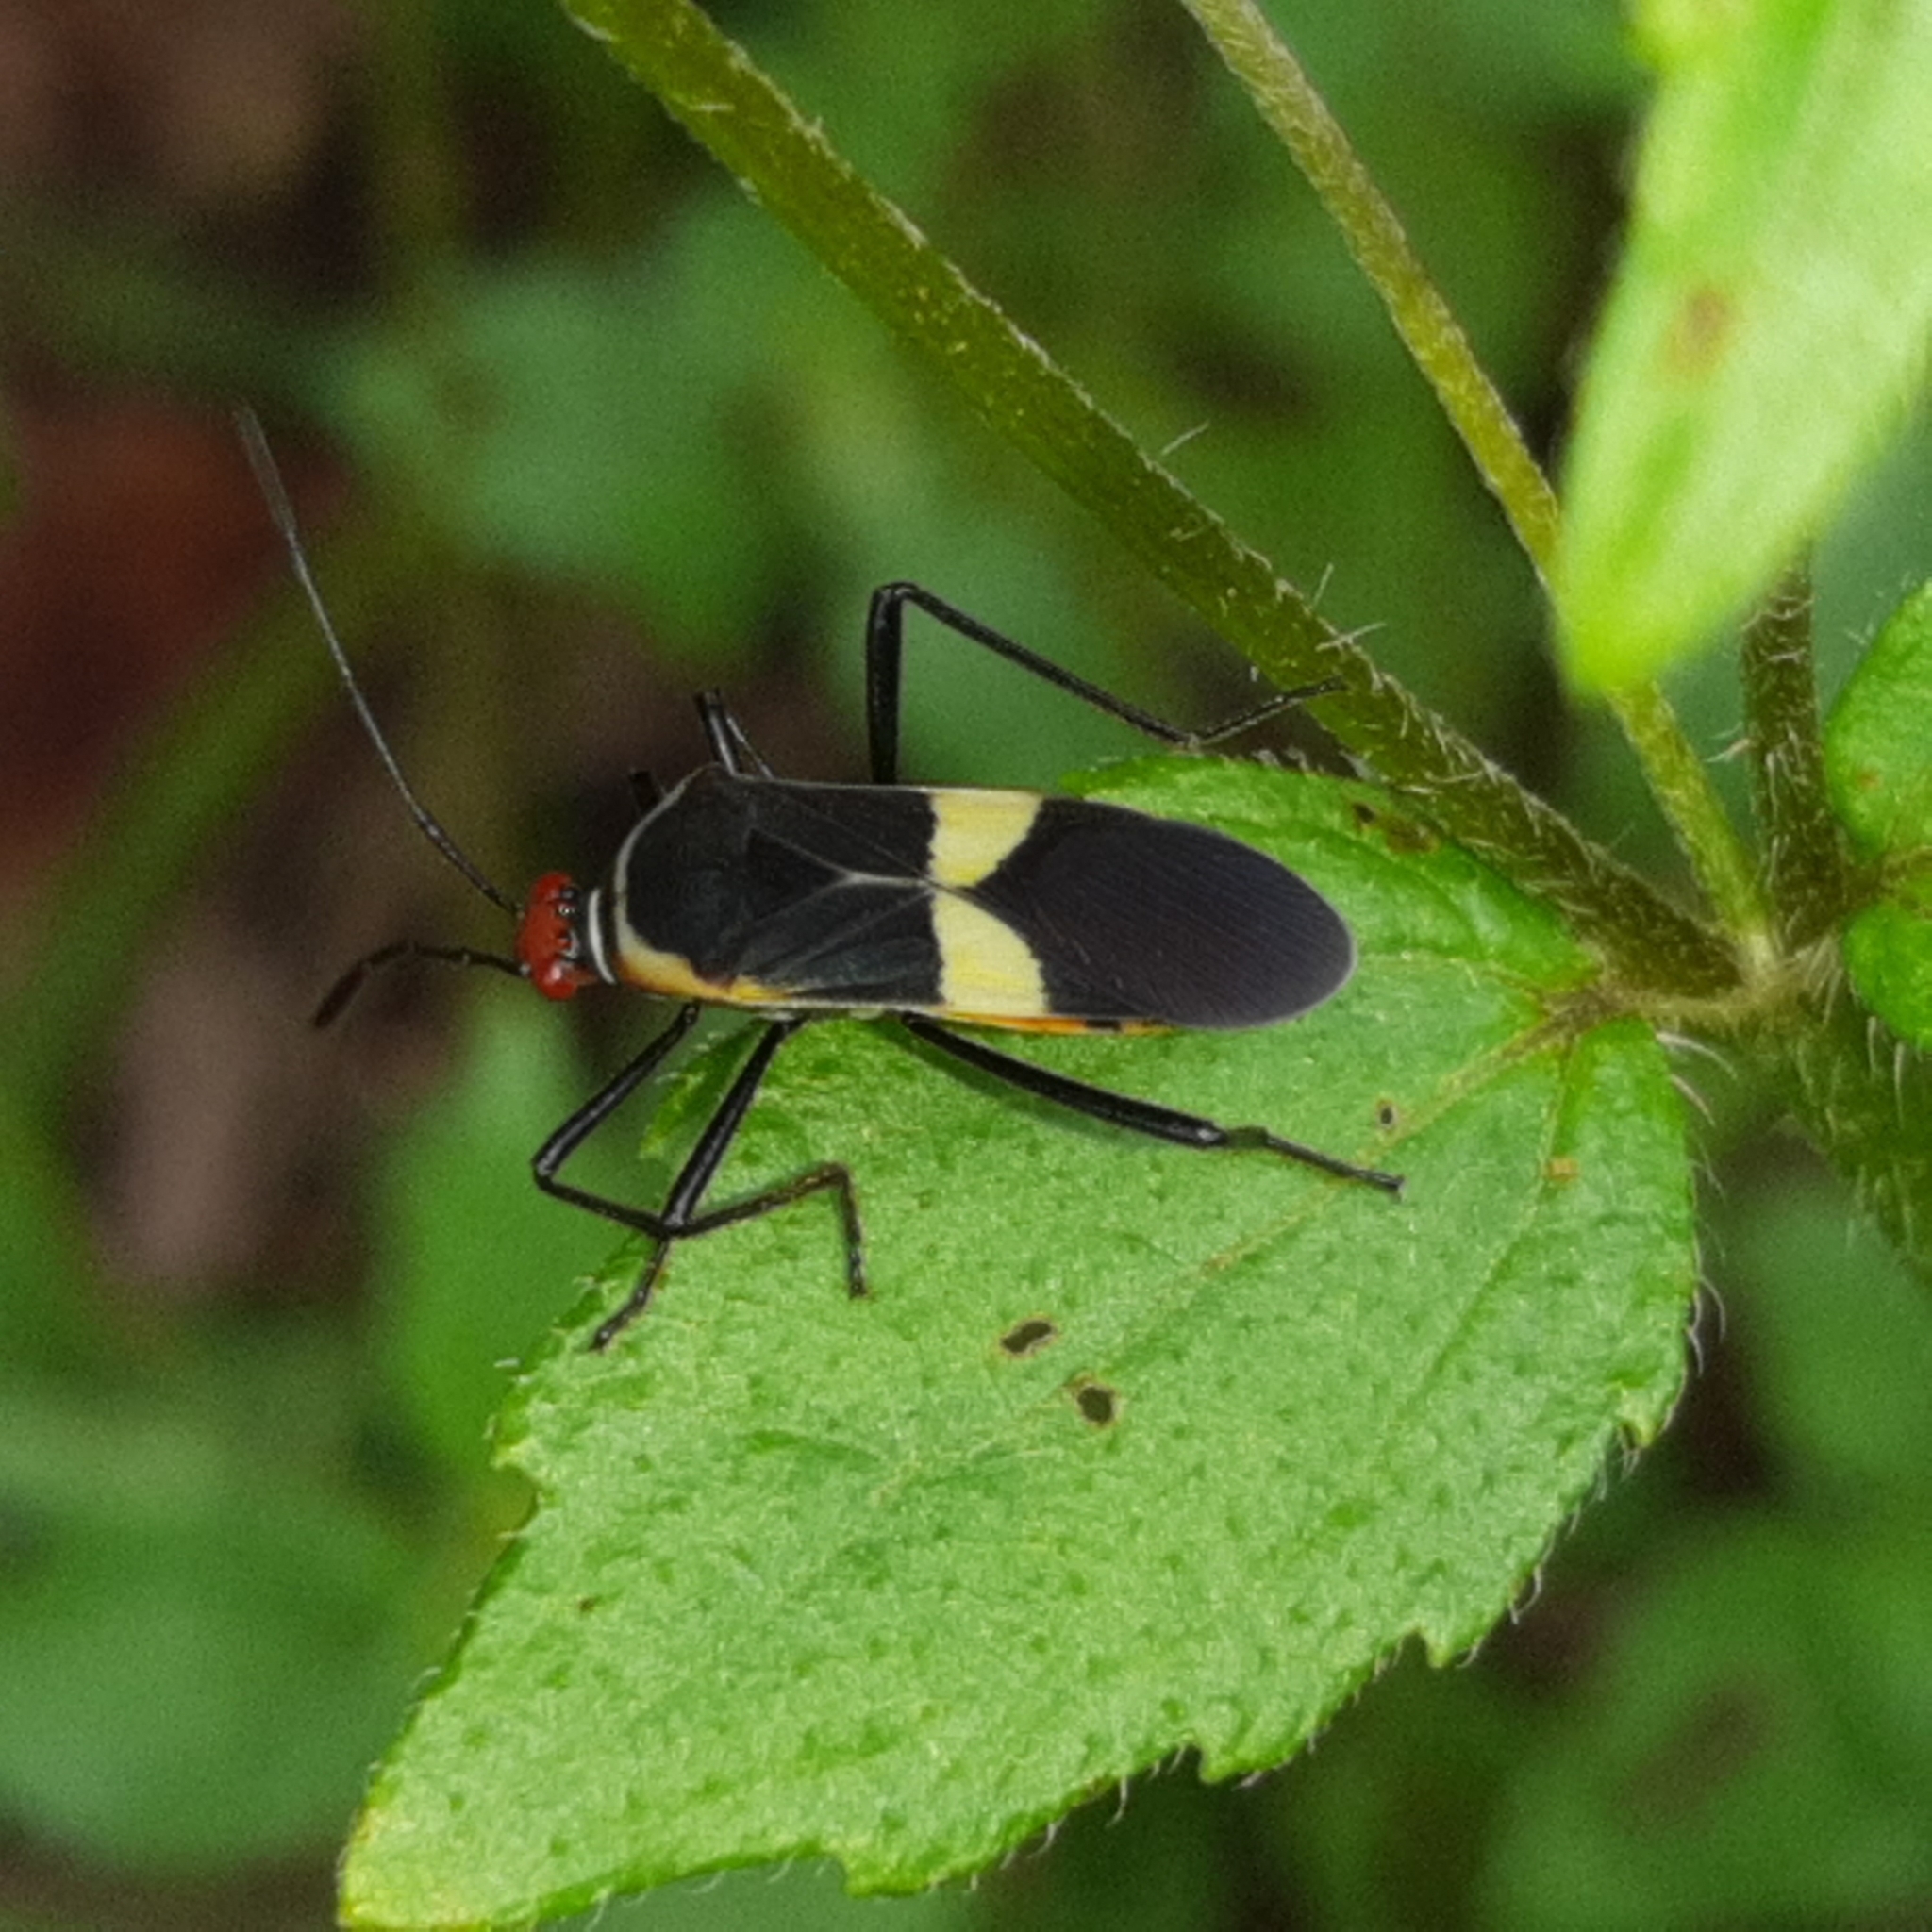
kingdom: Animalia
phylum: Arthropoda
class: Insecta
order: Hemiptera
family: Coreidae
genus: Hypselonotus
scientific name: Hypselonotus interruptus
